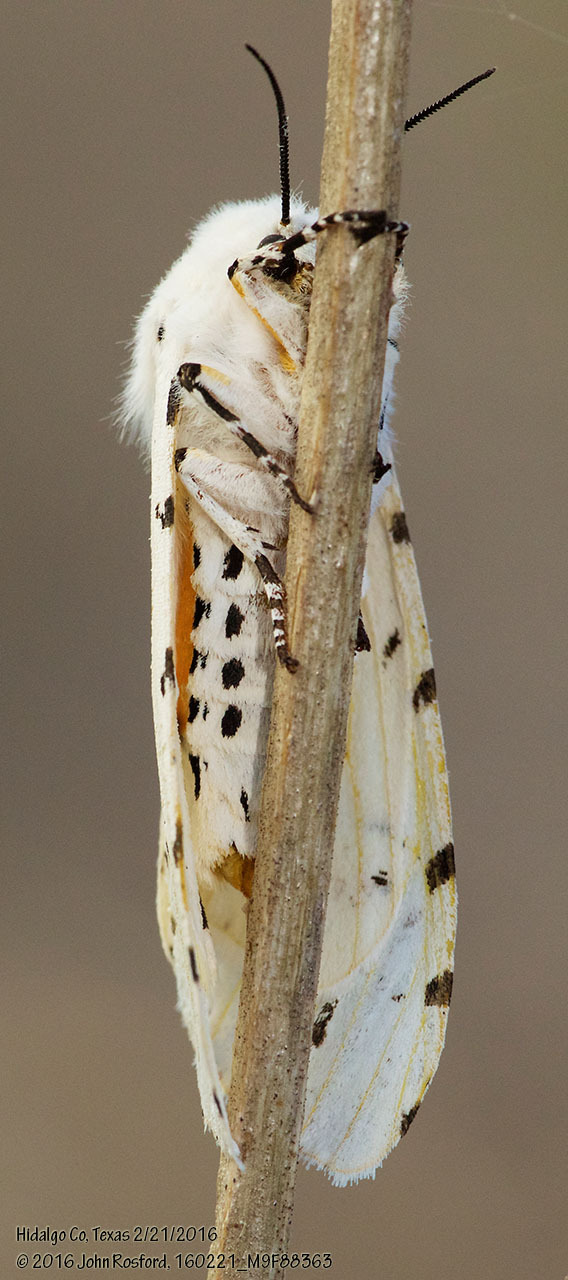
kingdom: Animalia
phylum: Arthropoda
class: Insecta
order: Lepidoptera
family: Erebidae
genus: Estigmene
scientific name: Estigmene acrea
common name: Salt marsh moth
